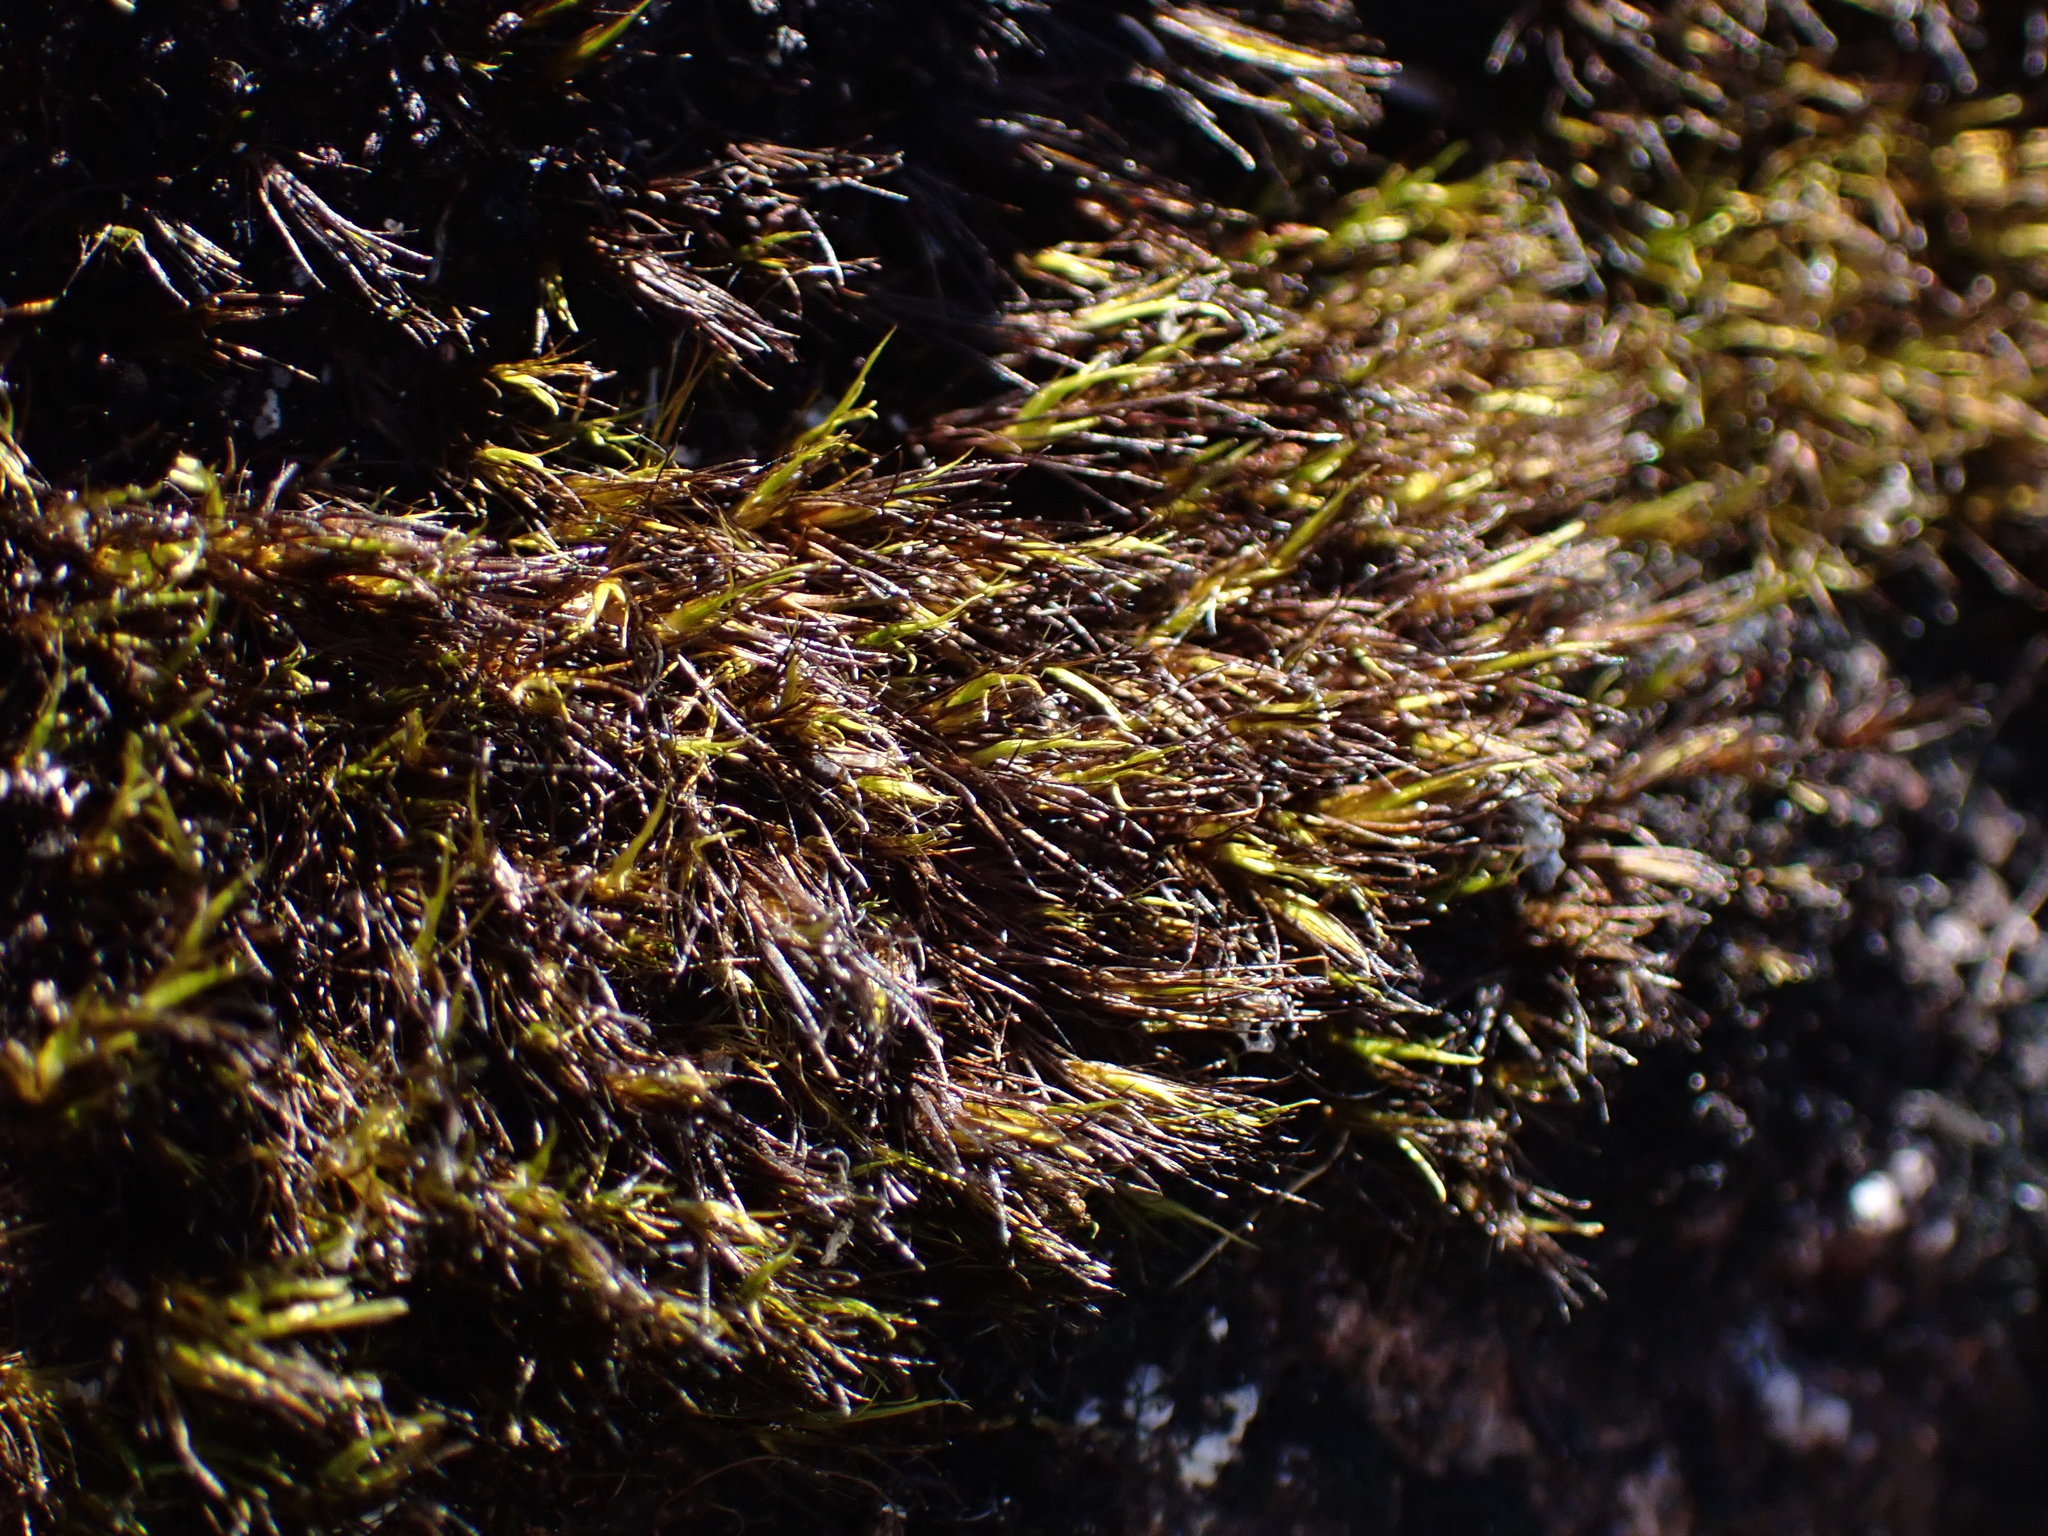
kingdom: Plantae
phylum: Bryophyta
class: Bryopsida
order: Dicranales
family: Leucobryaceae
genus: Campylopus
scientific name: Campylopus atrovirens
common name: Bristly swan-neck moss
